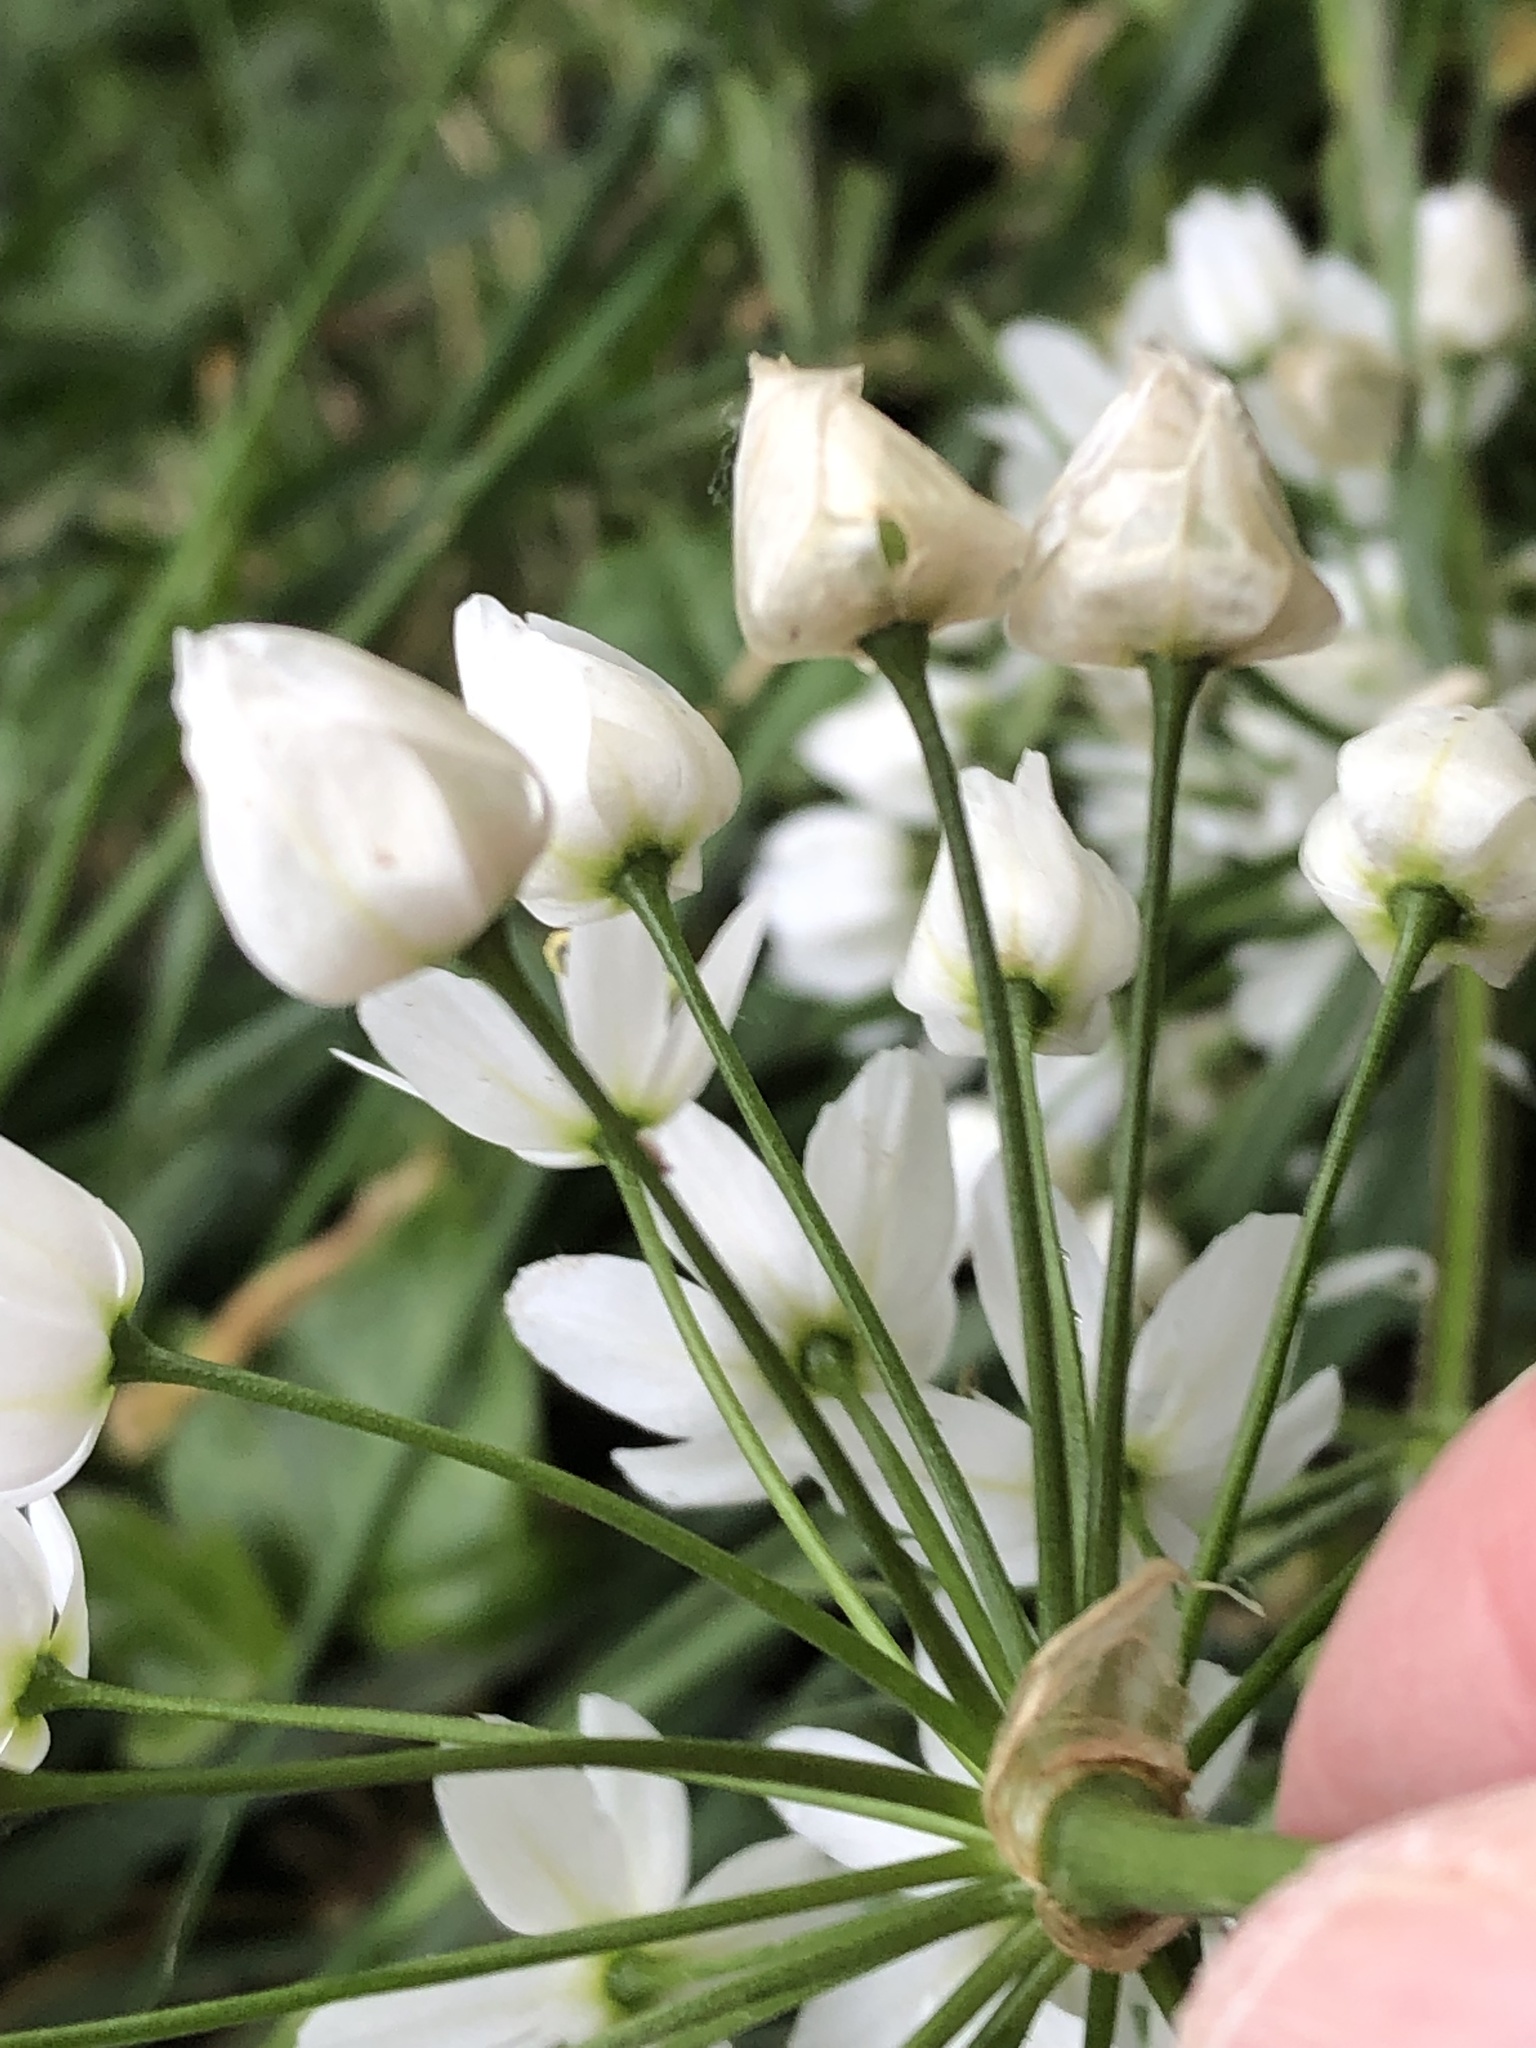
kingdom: Plantae
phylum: Tracheophyta
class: Liliopsida
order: Asparagales
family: Amaryllidaceae
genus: Allium
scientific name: Allium neapolitanum
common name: Neapolitan garlic
